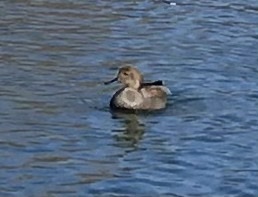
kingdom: Animalia
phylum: Chordata
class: Aves
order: Anseriformes
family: Anatidae
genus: Mareca
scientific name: Mareca strepera
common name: Gadwall
